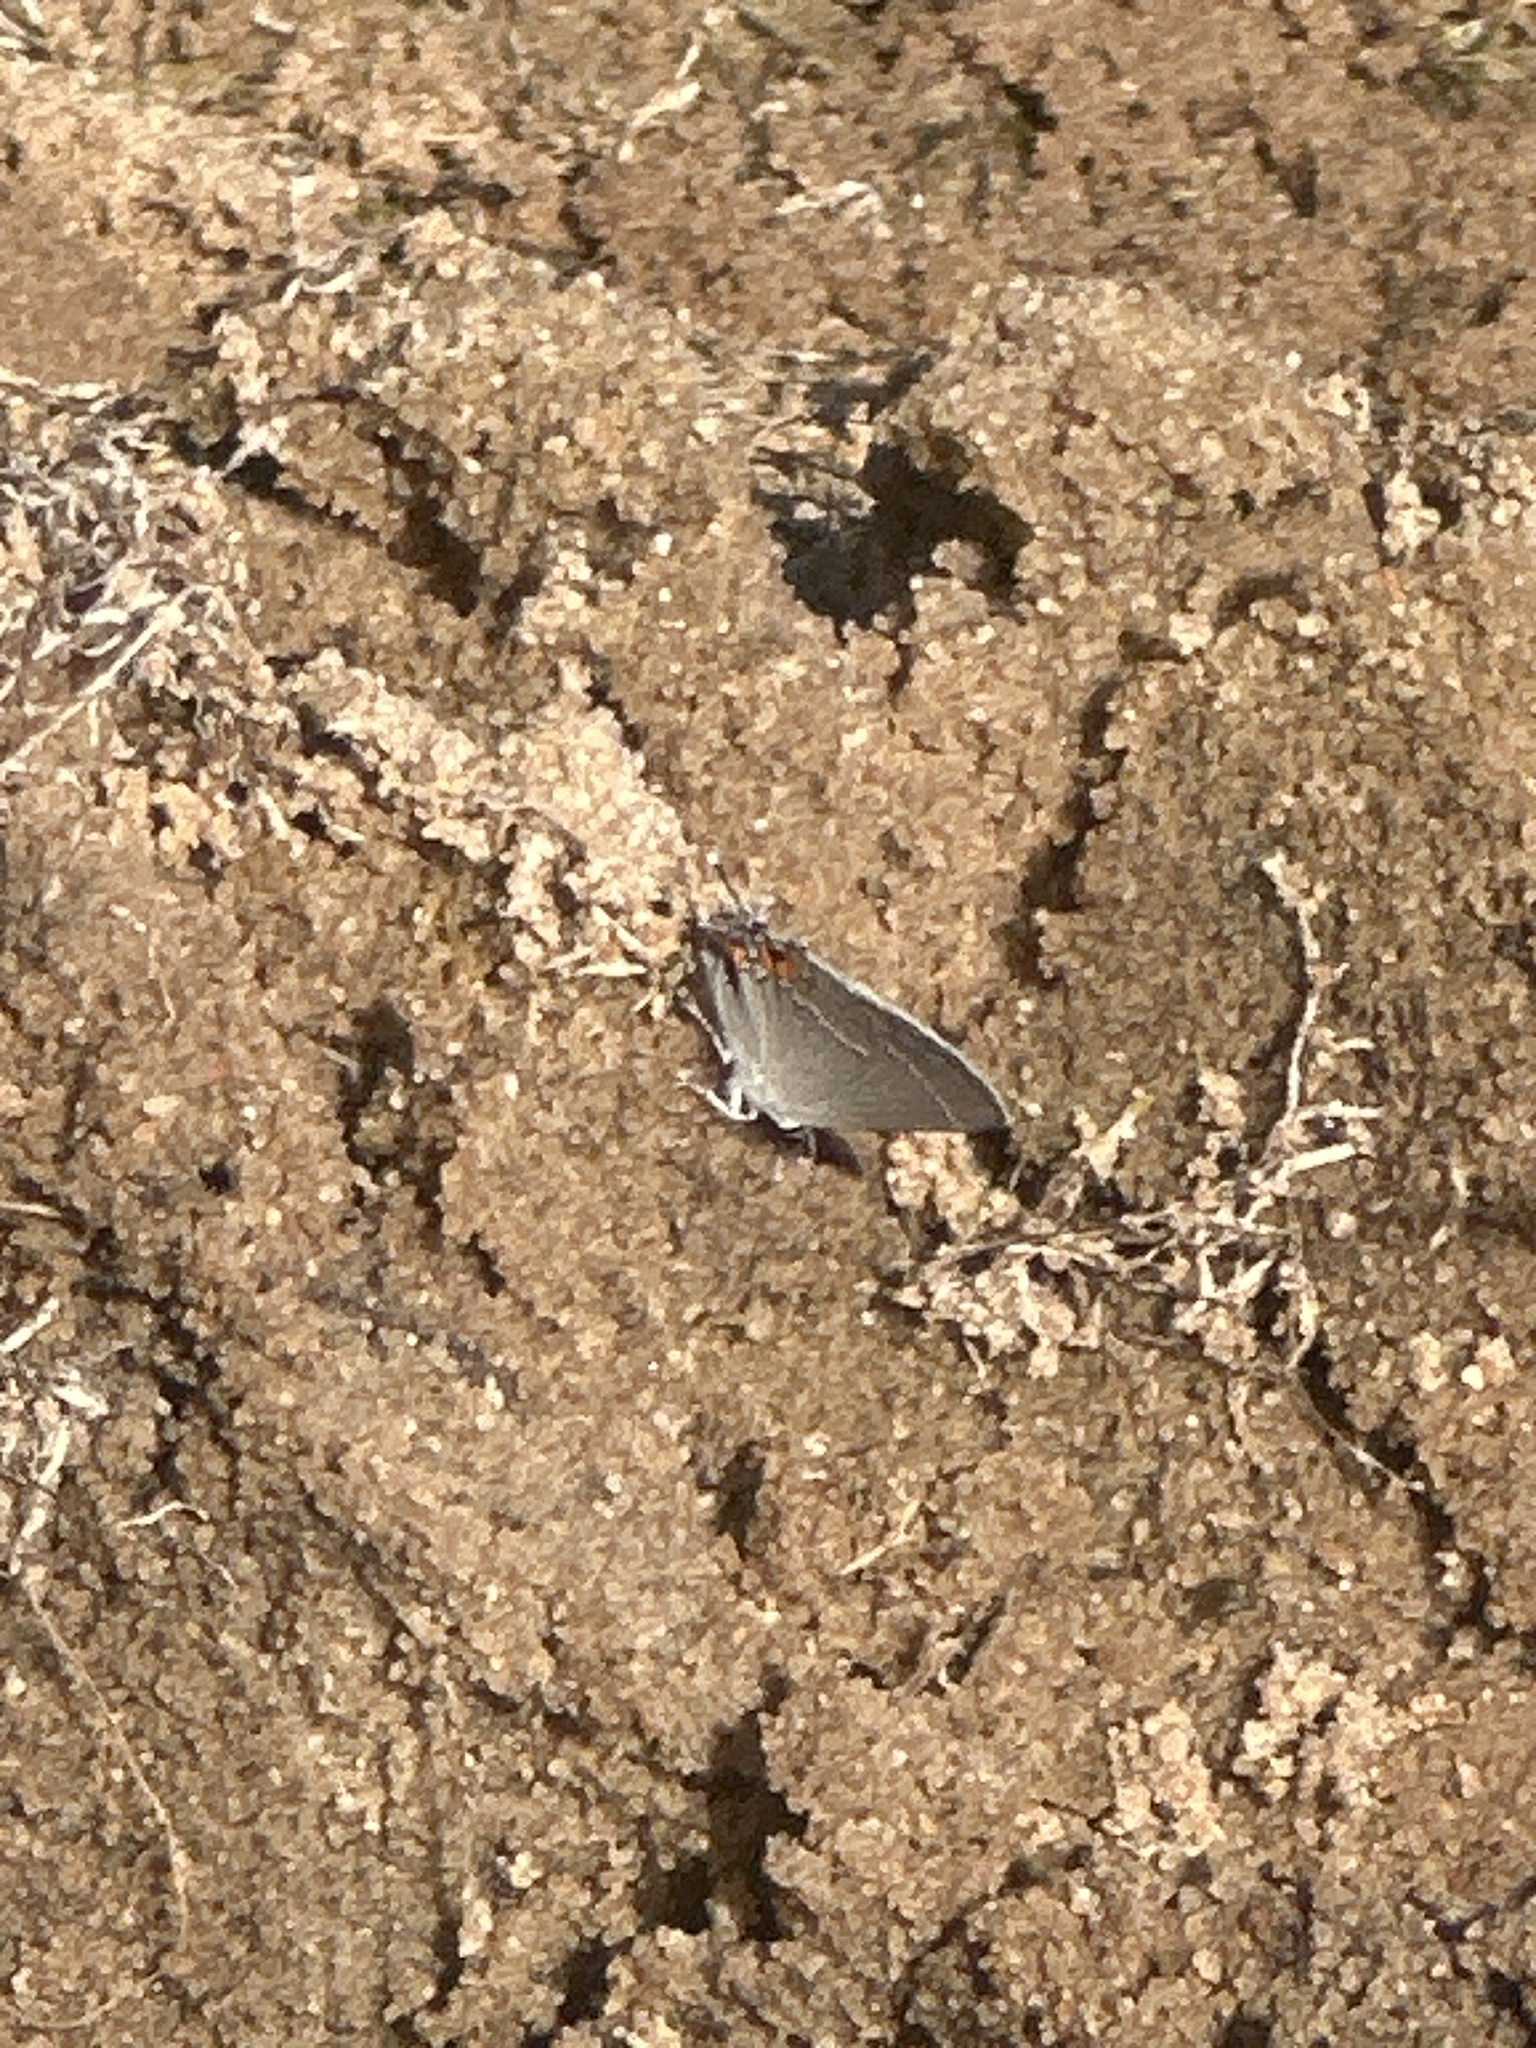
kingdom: Animalia
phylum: Arthropoda
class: Insecta
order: Lepidoptera
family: Lycaenidae
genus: Strymon
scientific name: Strymon melinus
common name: Gray hairstreak
